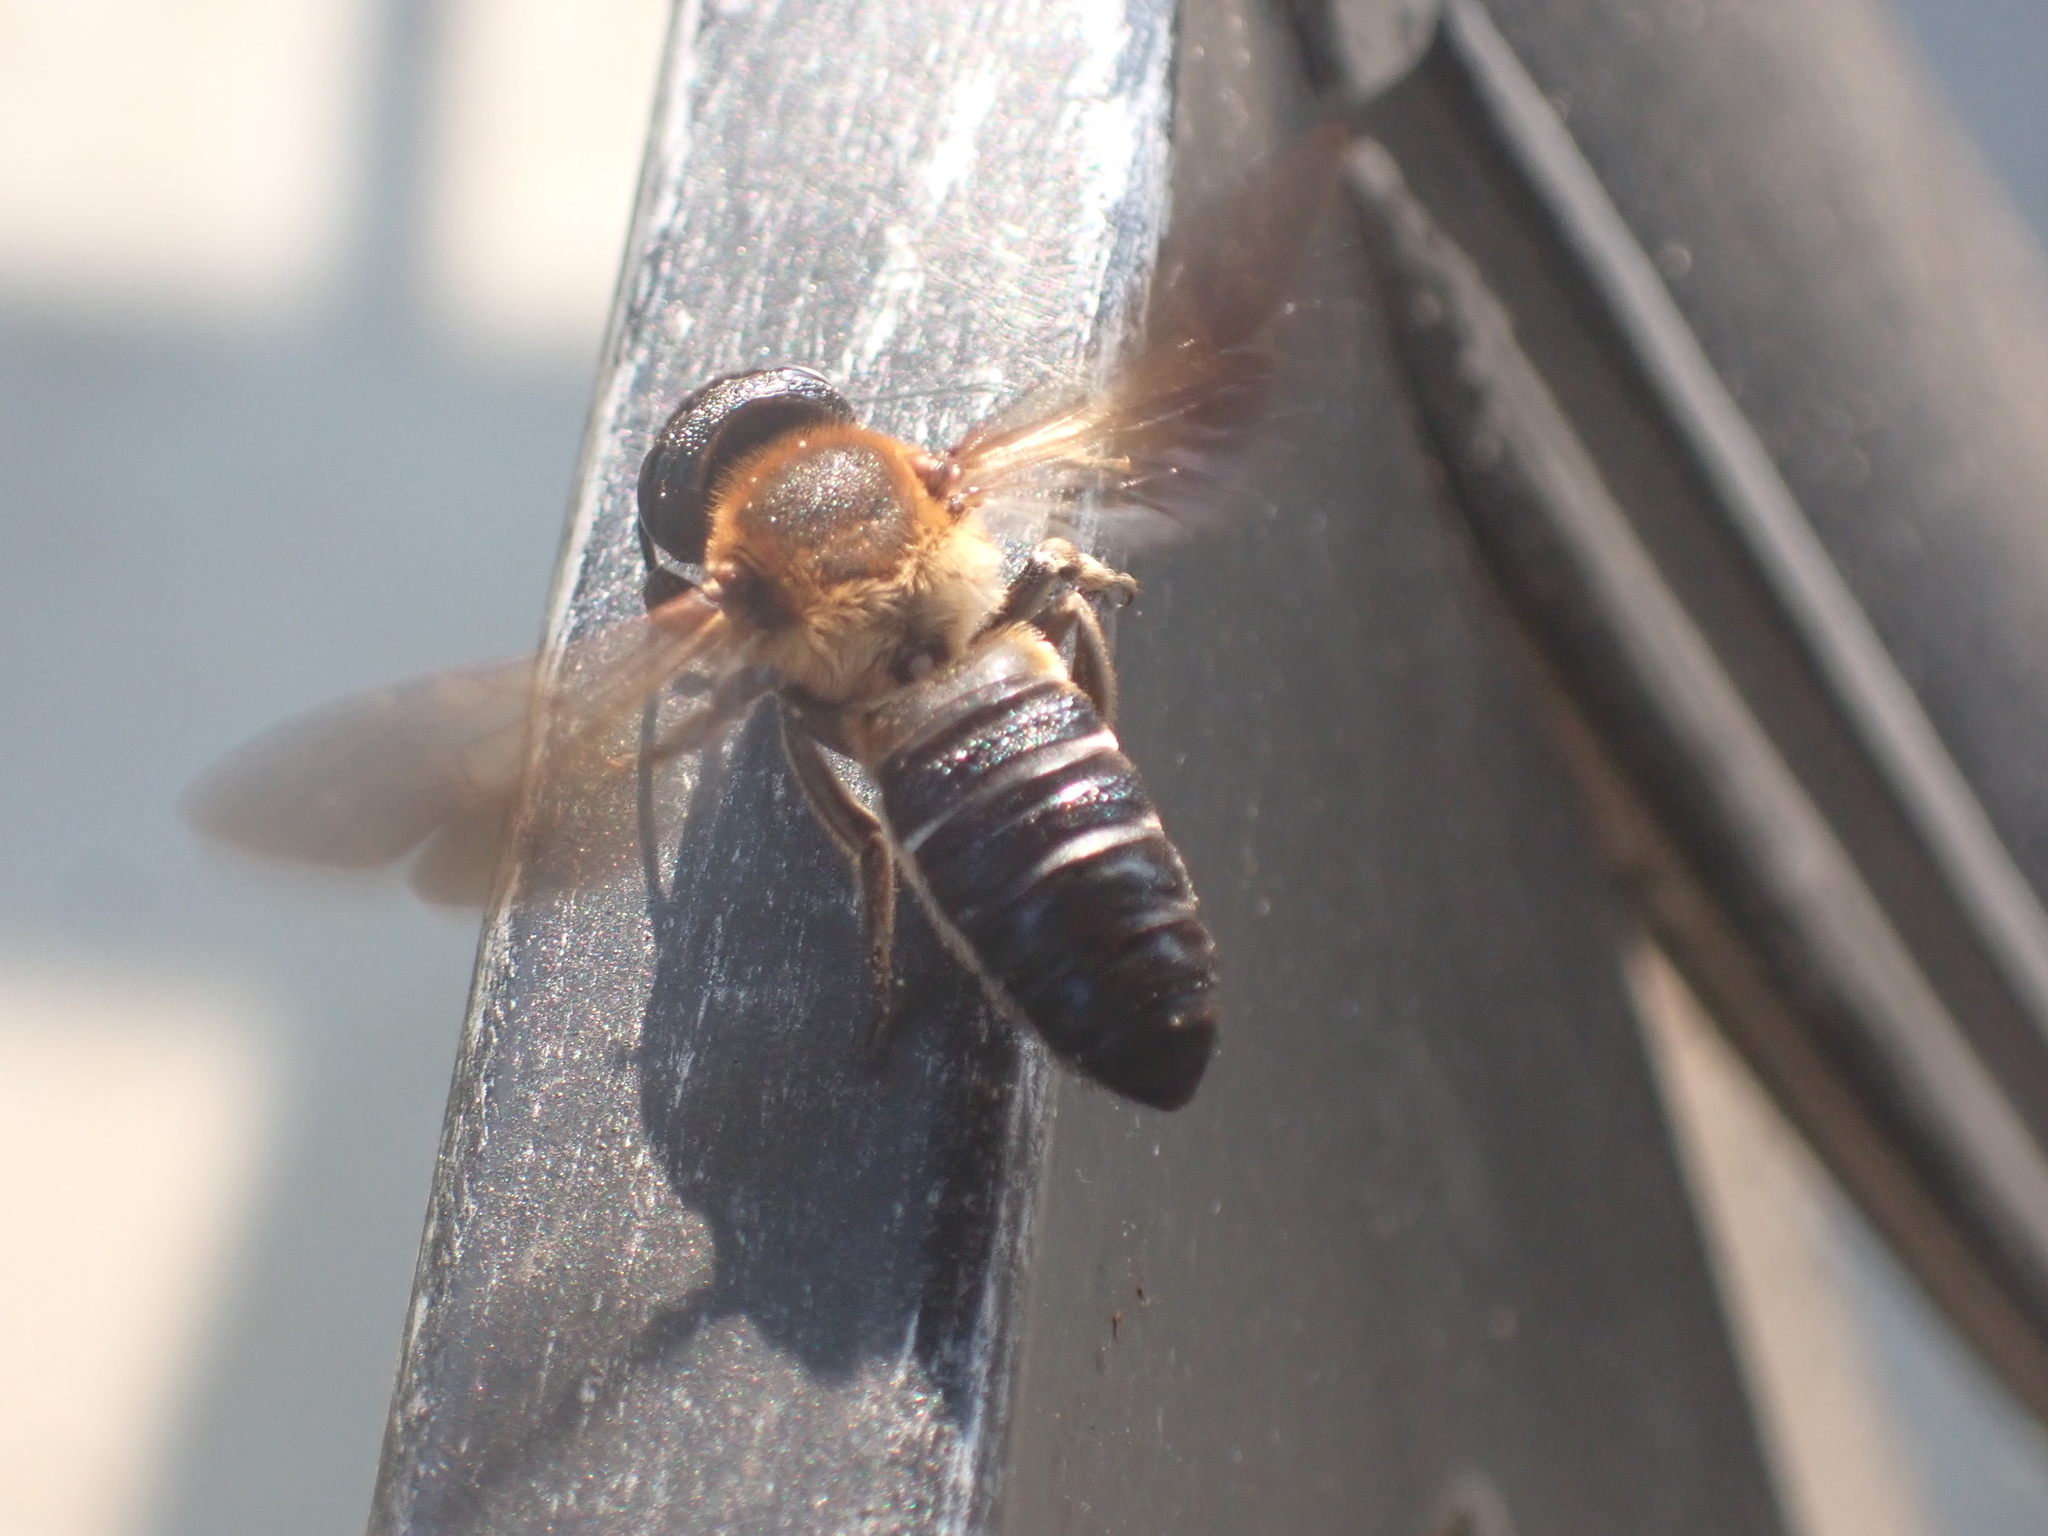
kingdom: Animalia
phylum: Arthropoda
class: Insecta
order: Hymenoptera
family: Megachilidae
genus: Megachile
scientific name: Megachile sculpturalis
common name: Sculptured resin bee
